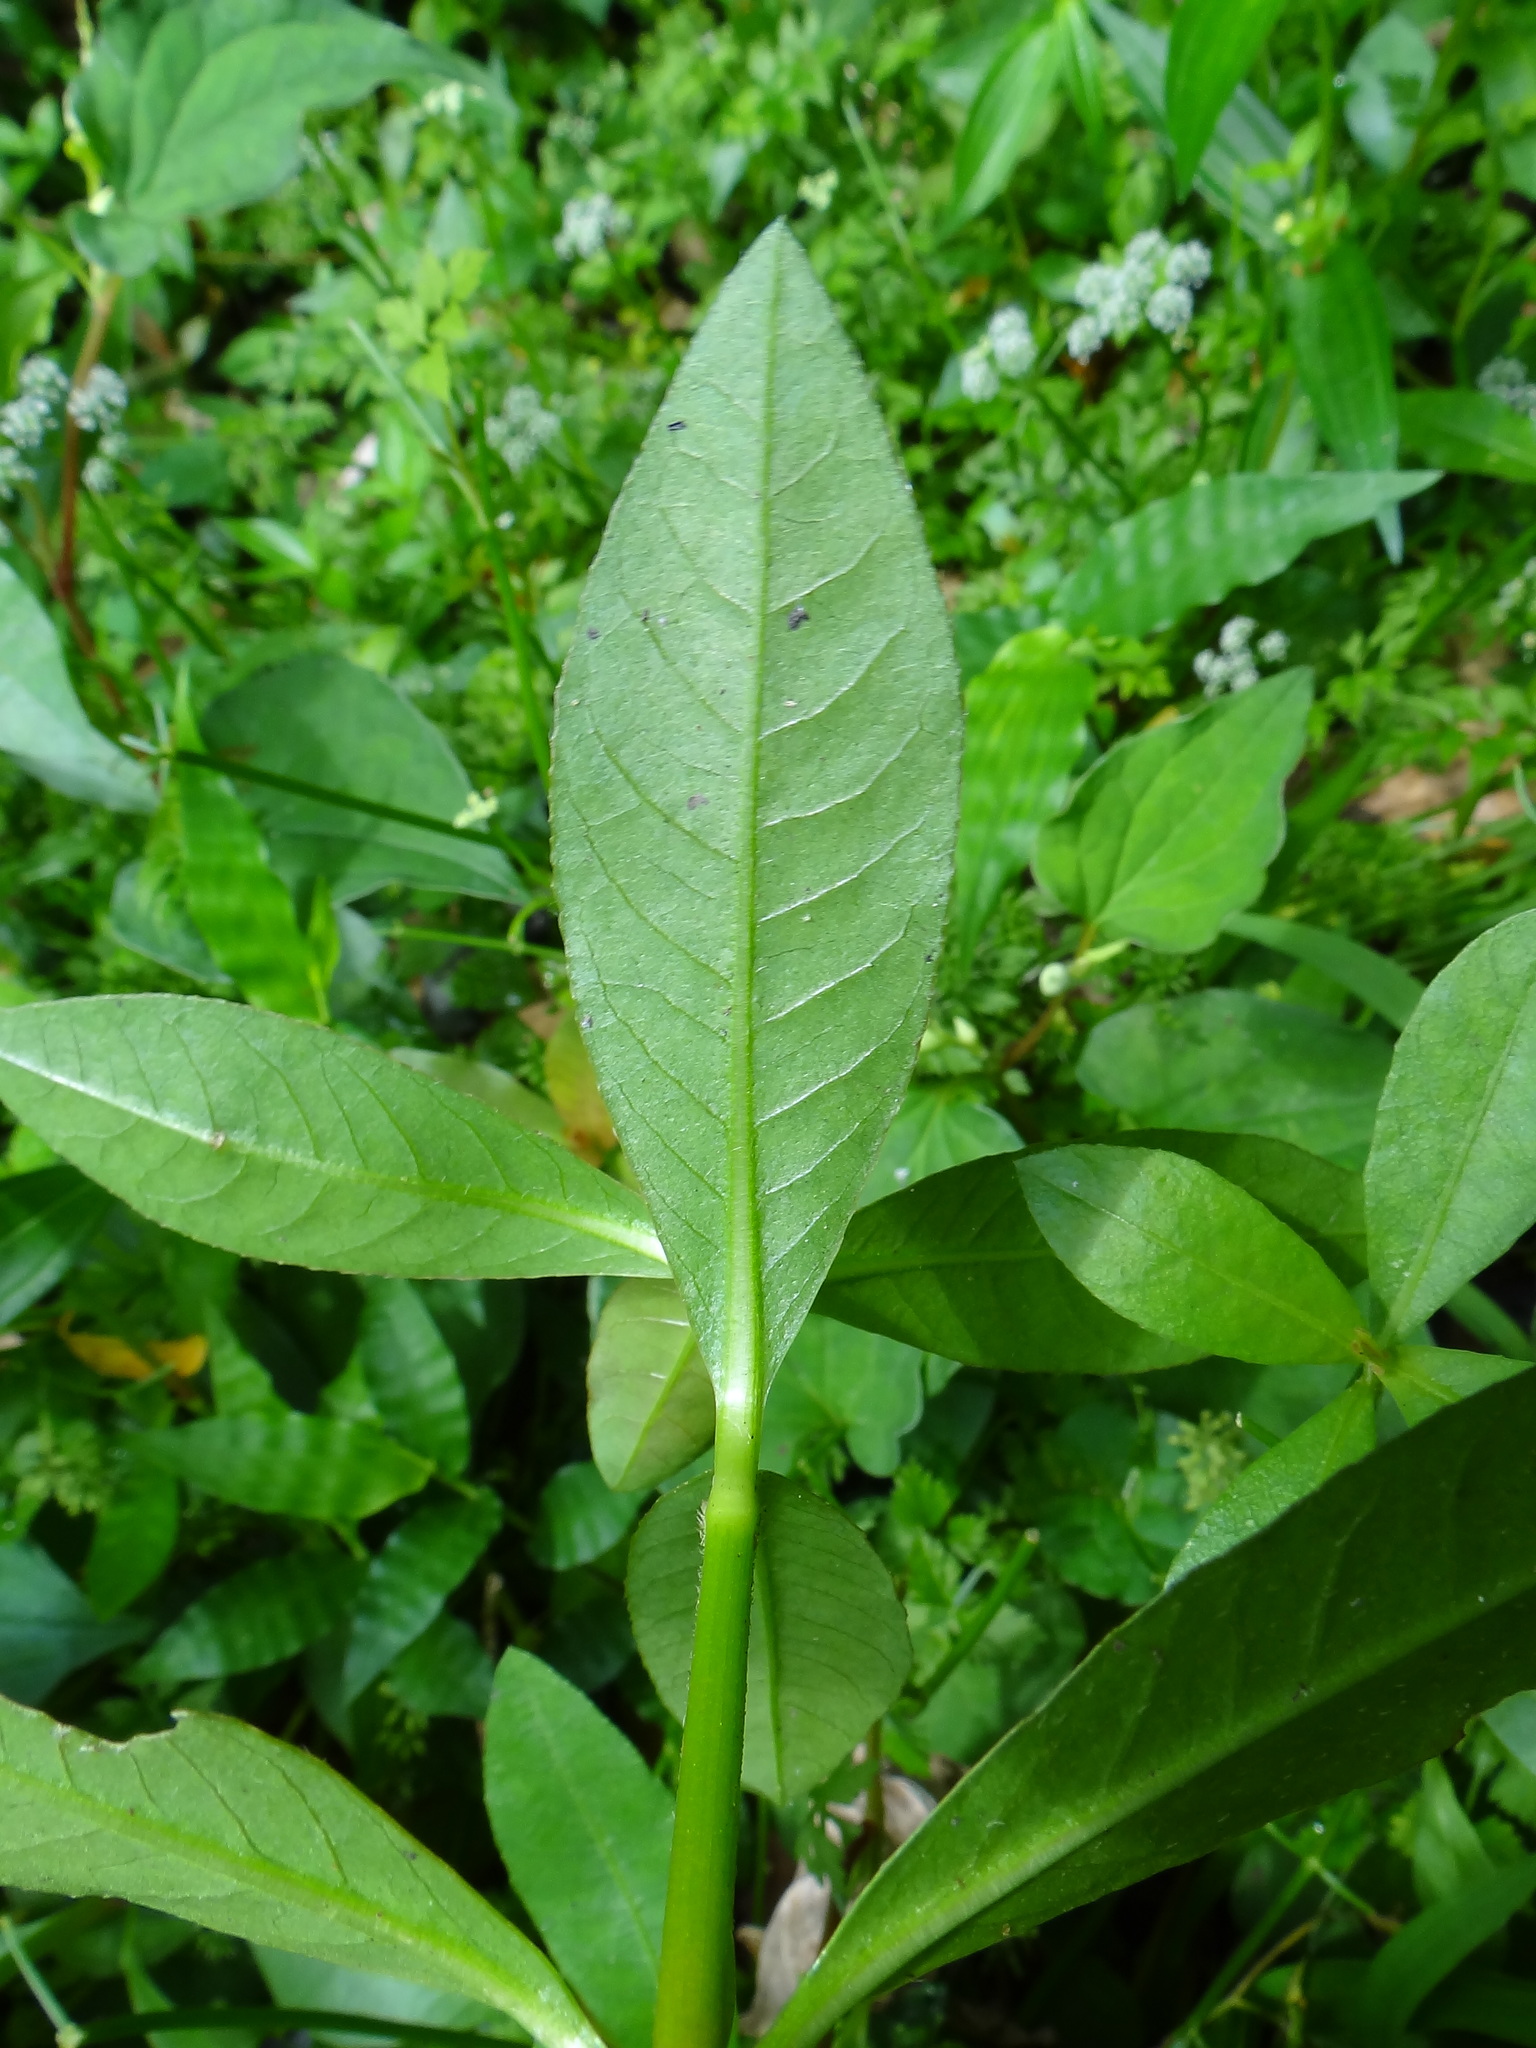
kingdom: Plantae
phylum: Tracheophyta
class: Magnoliopsida
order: Caryophyllales
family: Amaranthaceae
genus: Alternanthera
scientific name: Alternanthera philoxeroides
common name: Alligatorweed
